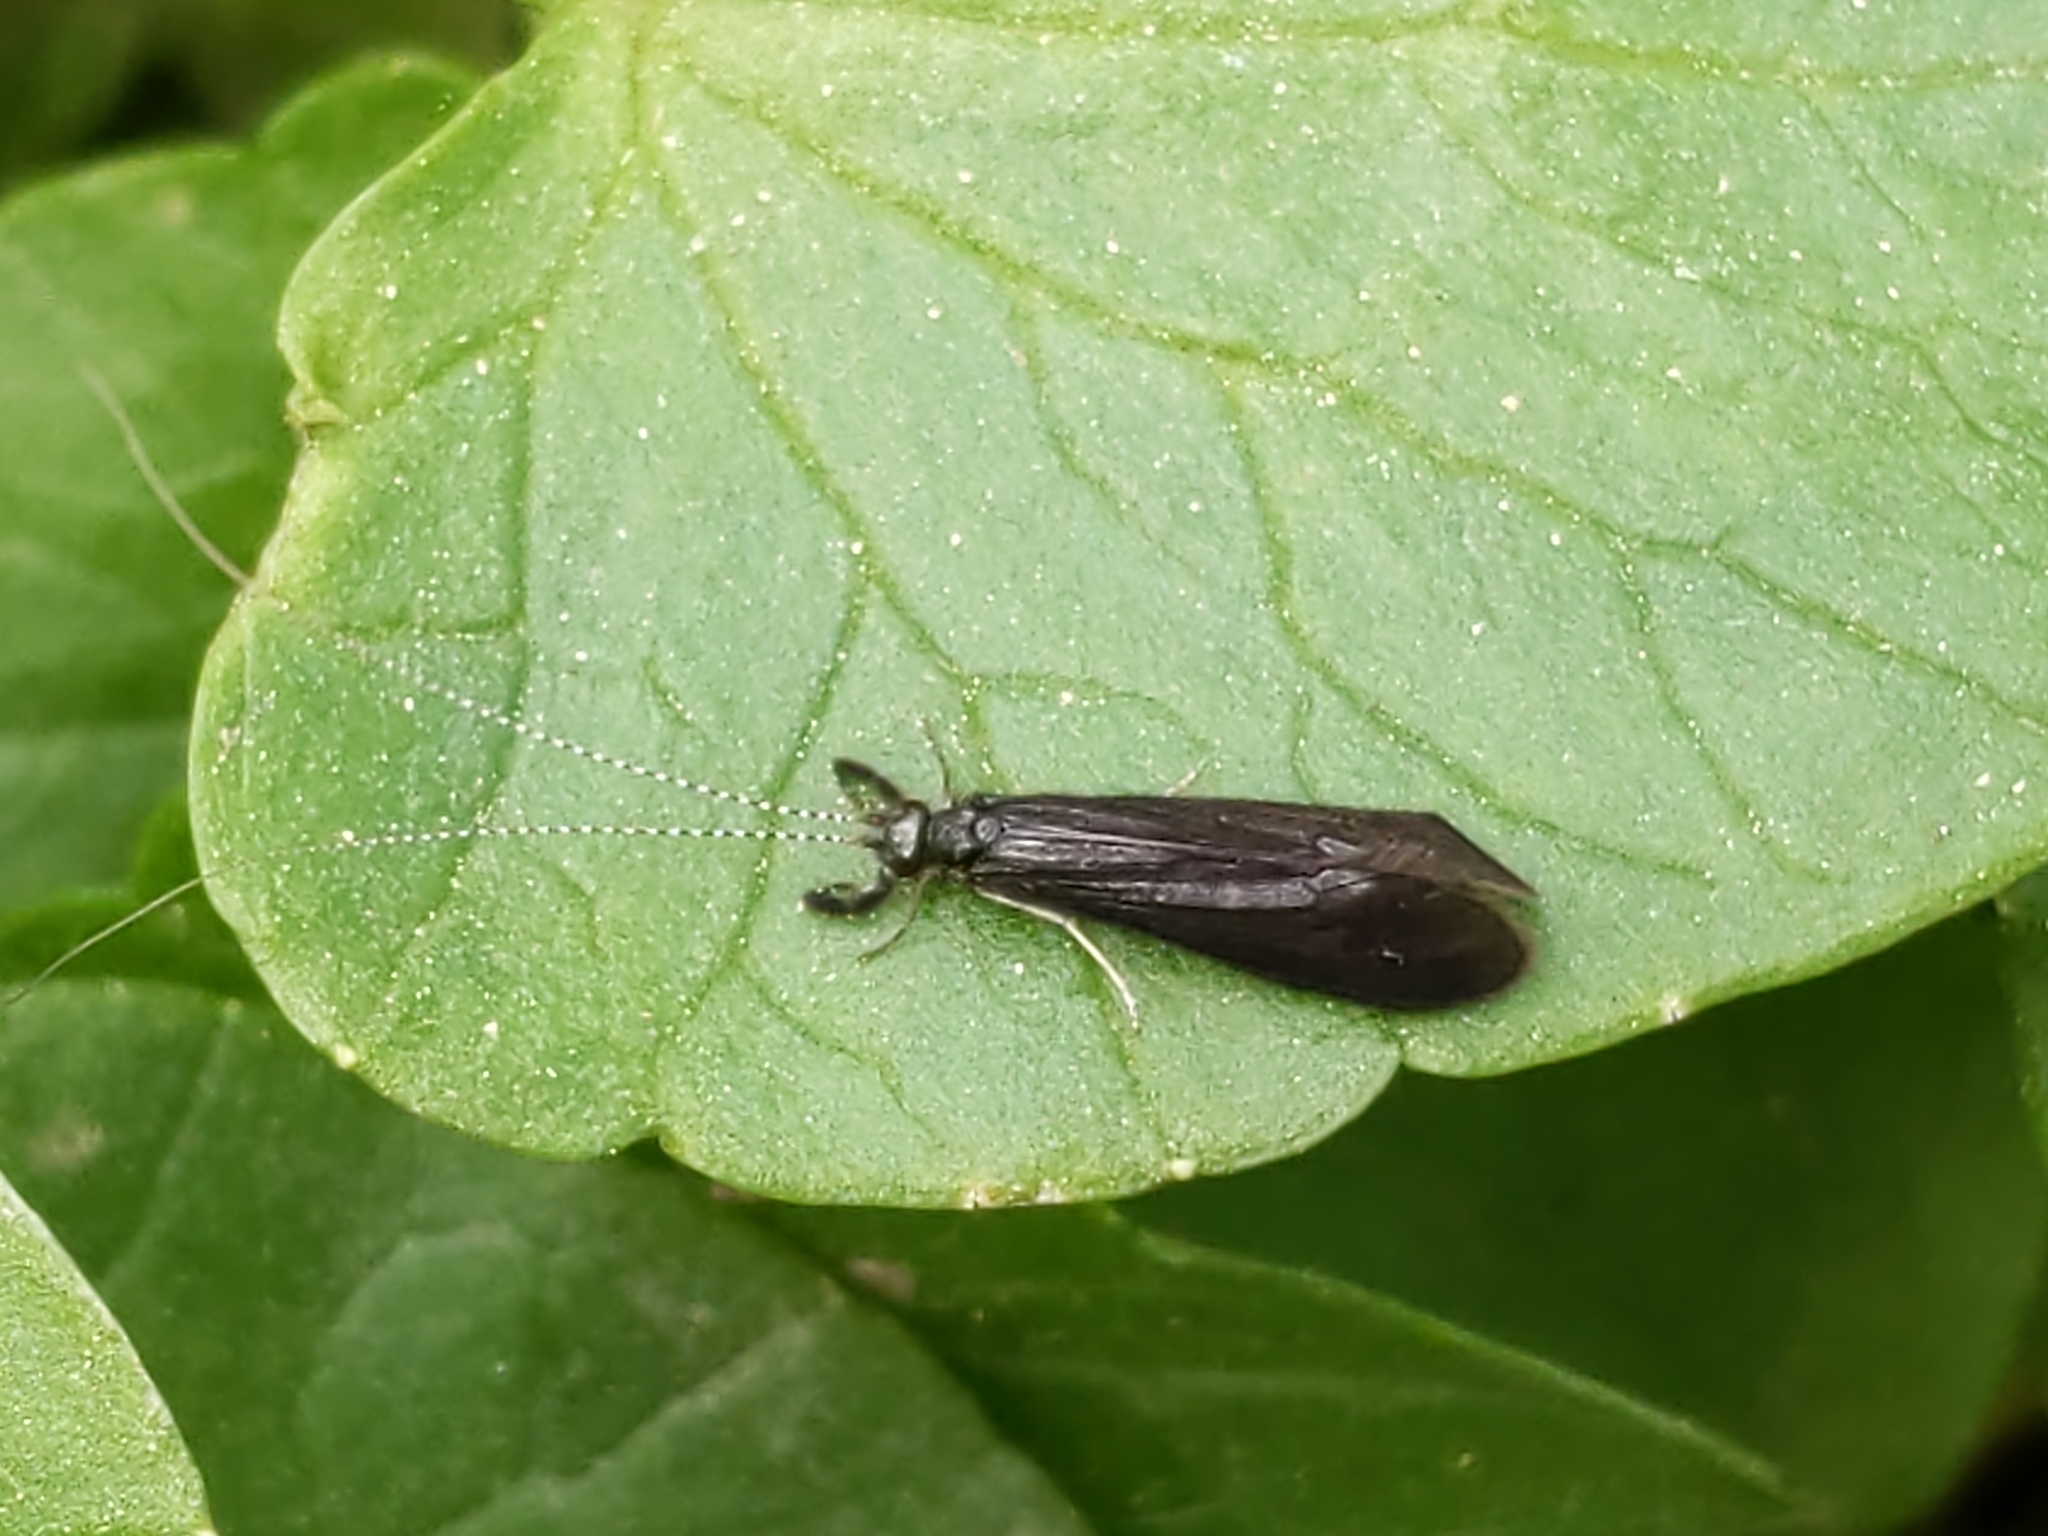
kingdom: Animalia
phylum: Arthropoda
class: Insecta
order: Trichoptera
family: Leptoceridae
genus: Mystacides
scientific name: Mystacides sepulchralis
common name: Black dancer caddisfly
